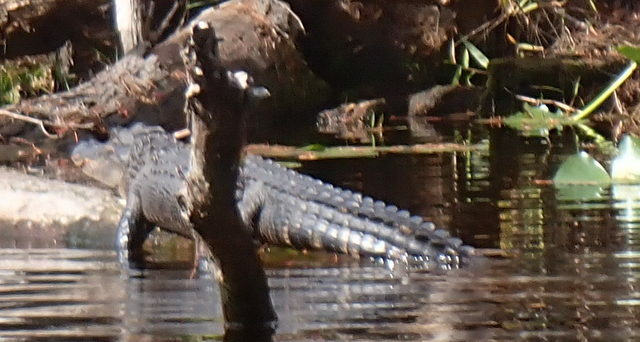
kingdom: Animalia
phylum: Chordata
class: Crocodylia
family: Alligatoridae
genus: Alligator
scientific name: Alligator mississippiensis
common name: American alligator
